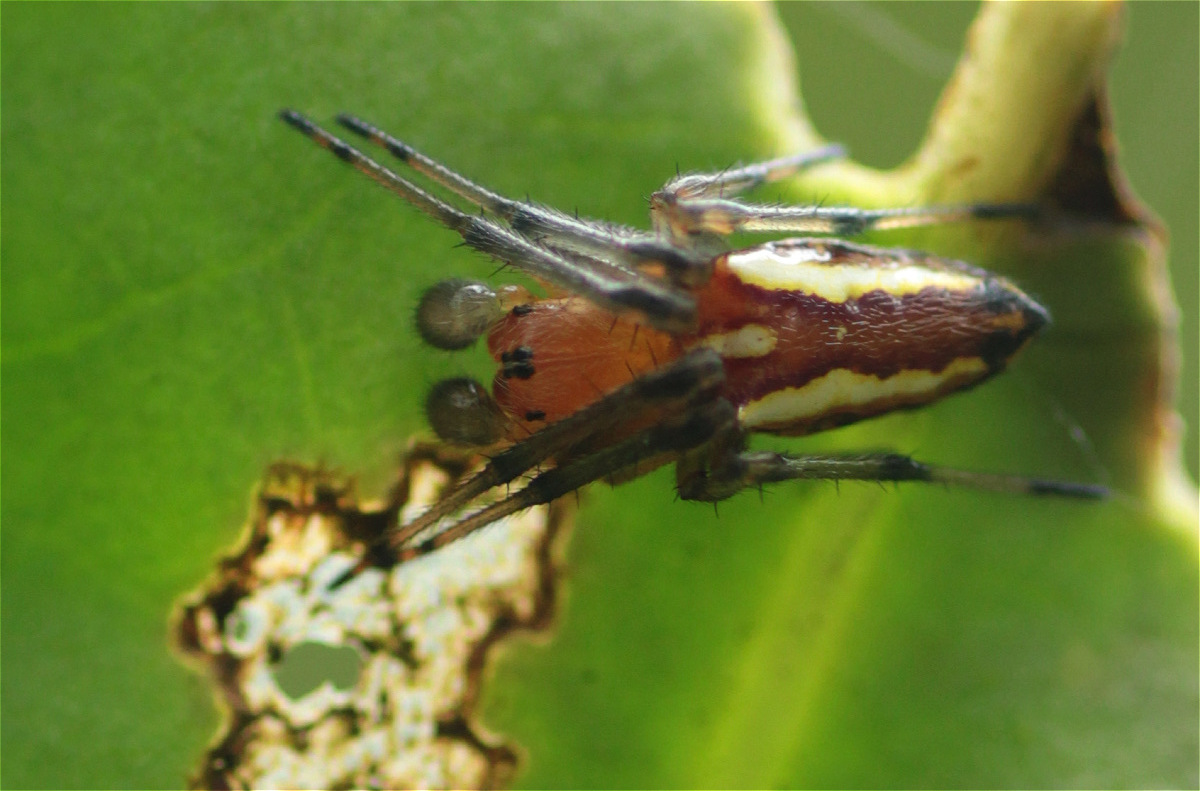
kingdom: Animalia
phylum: Arthropoda
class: Arachnida
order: Araneae
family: Araneidae
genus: Alpaida
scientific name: Alpaida bicornuta
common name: Orb weavers
